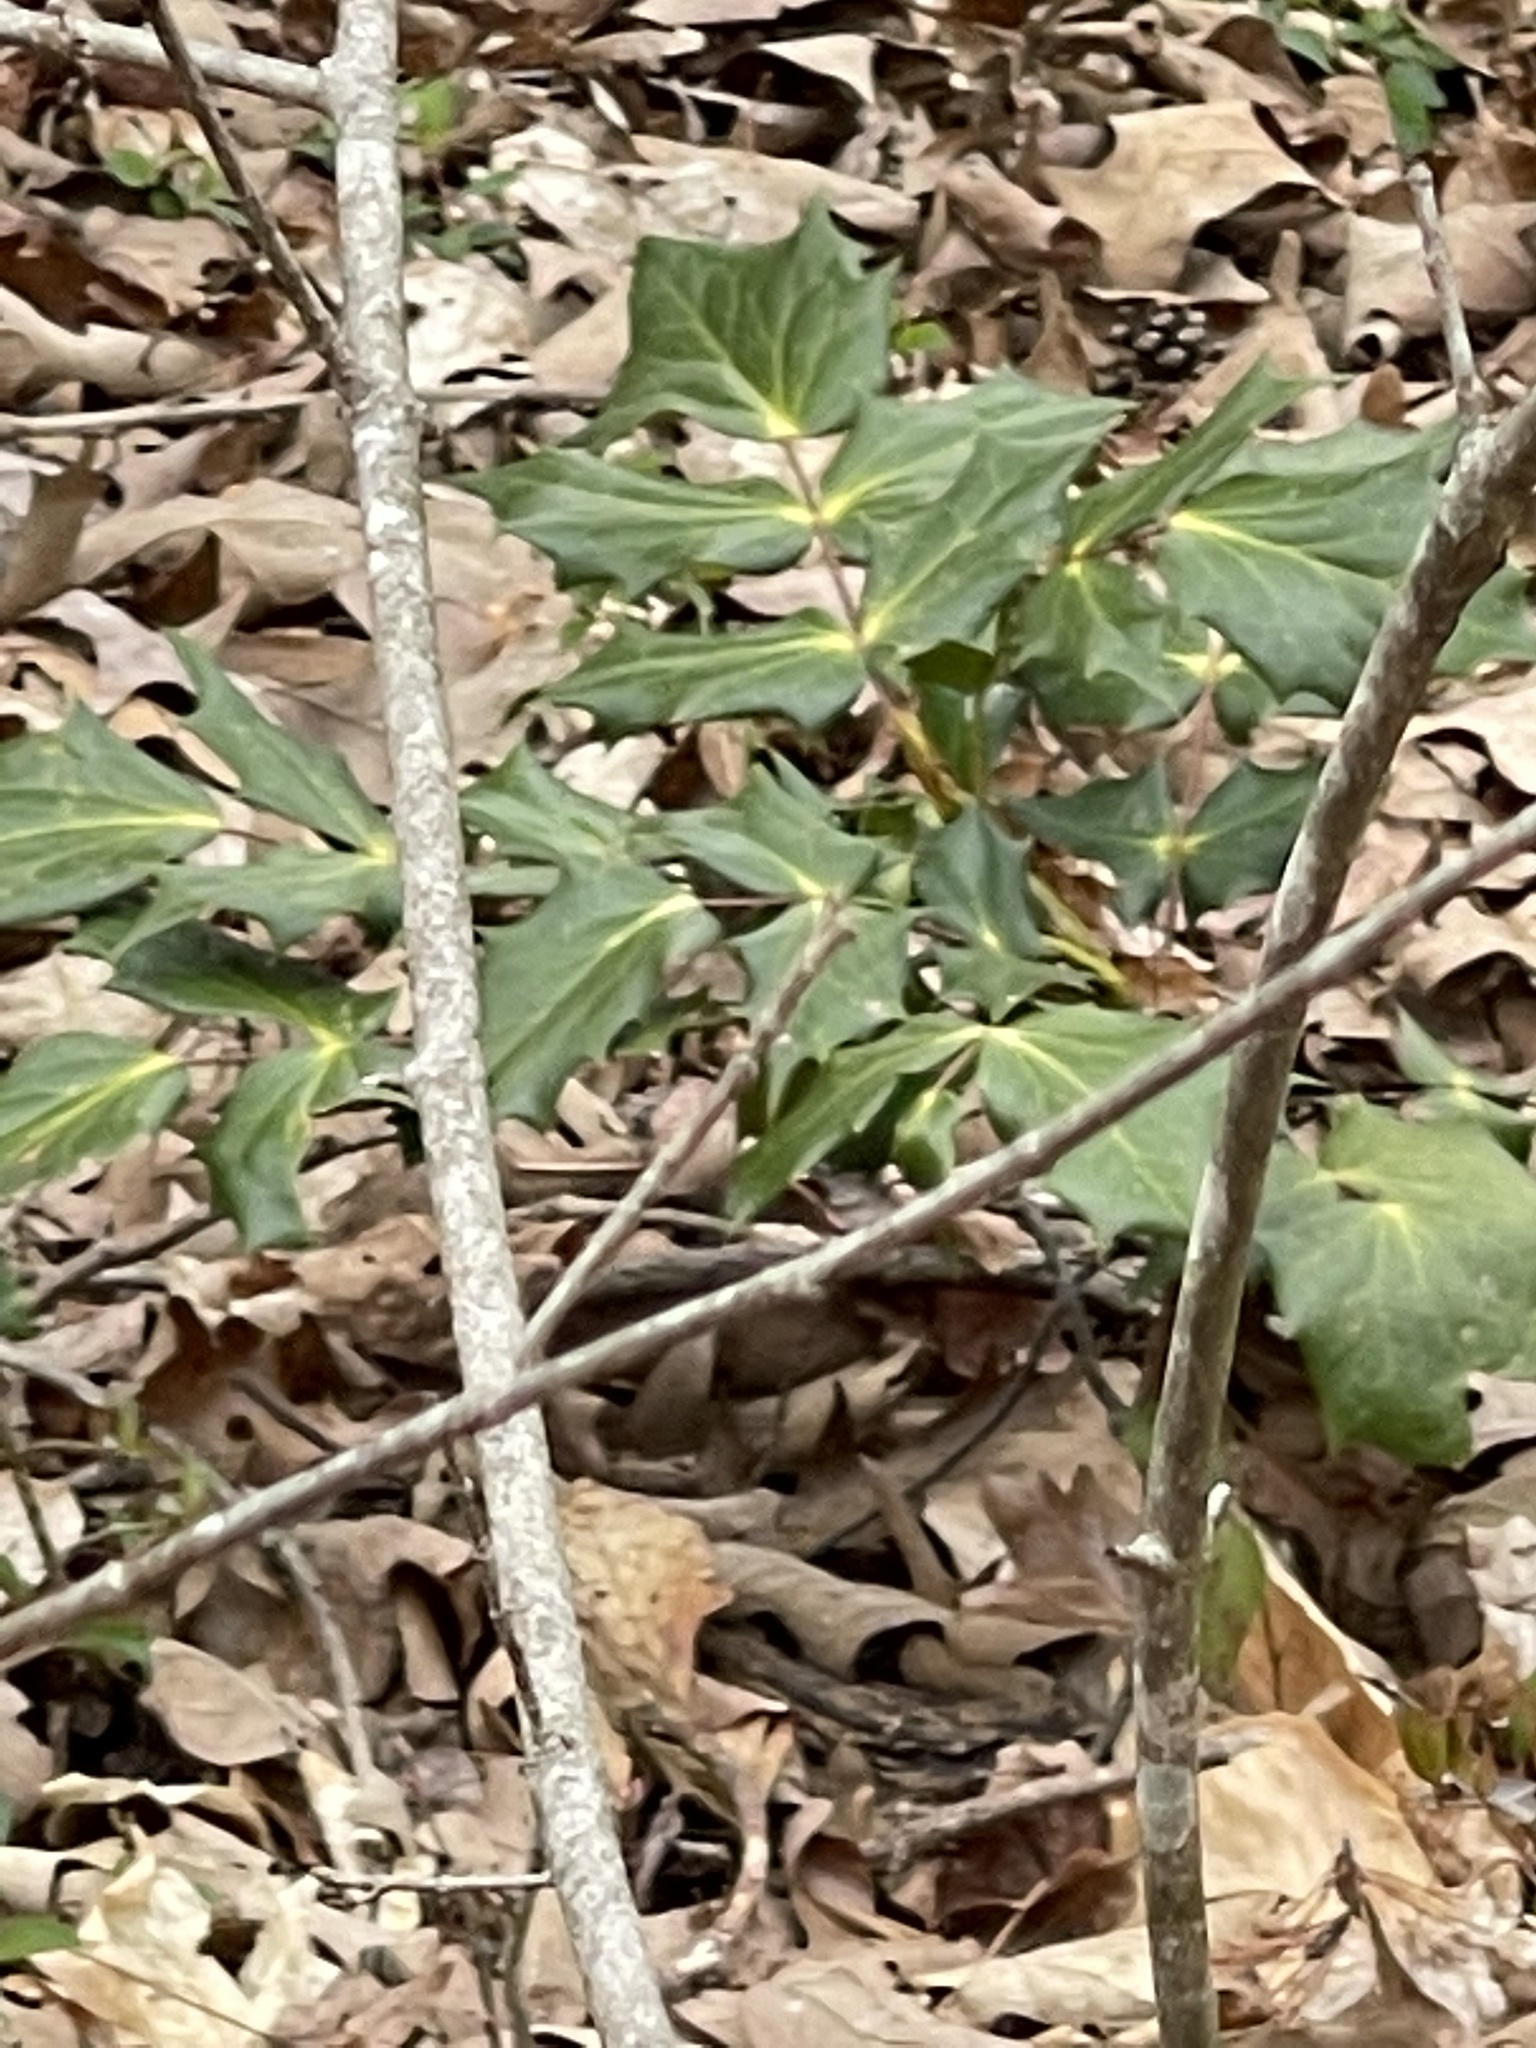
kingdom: Plantae
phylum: Tracheophyta
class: Magnoliopsida
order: Ranunculales
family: Berberidaceae
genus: Mahonia
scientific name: Mahonia bealei
